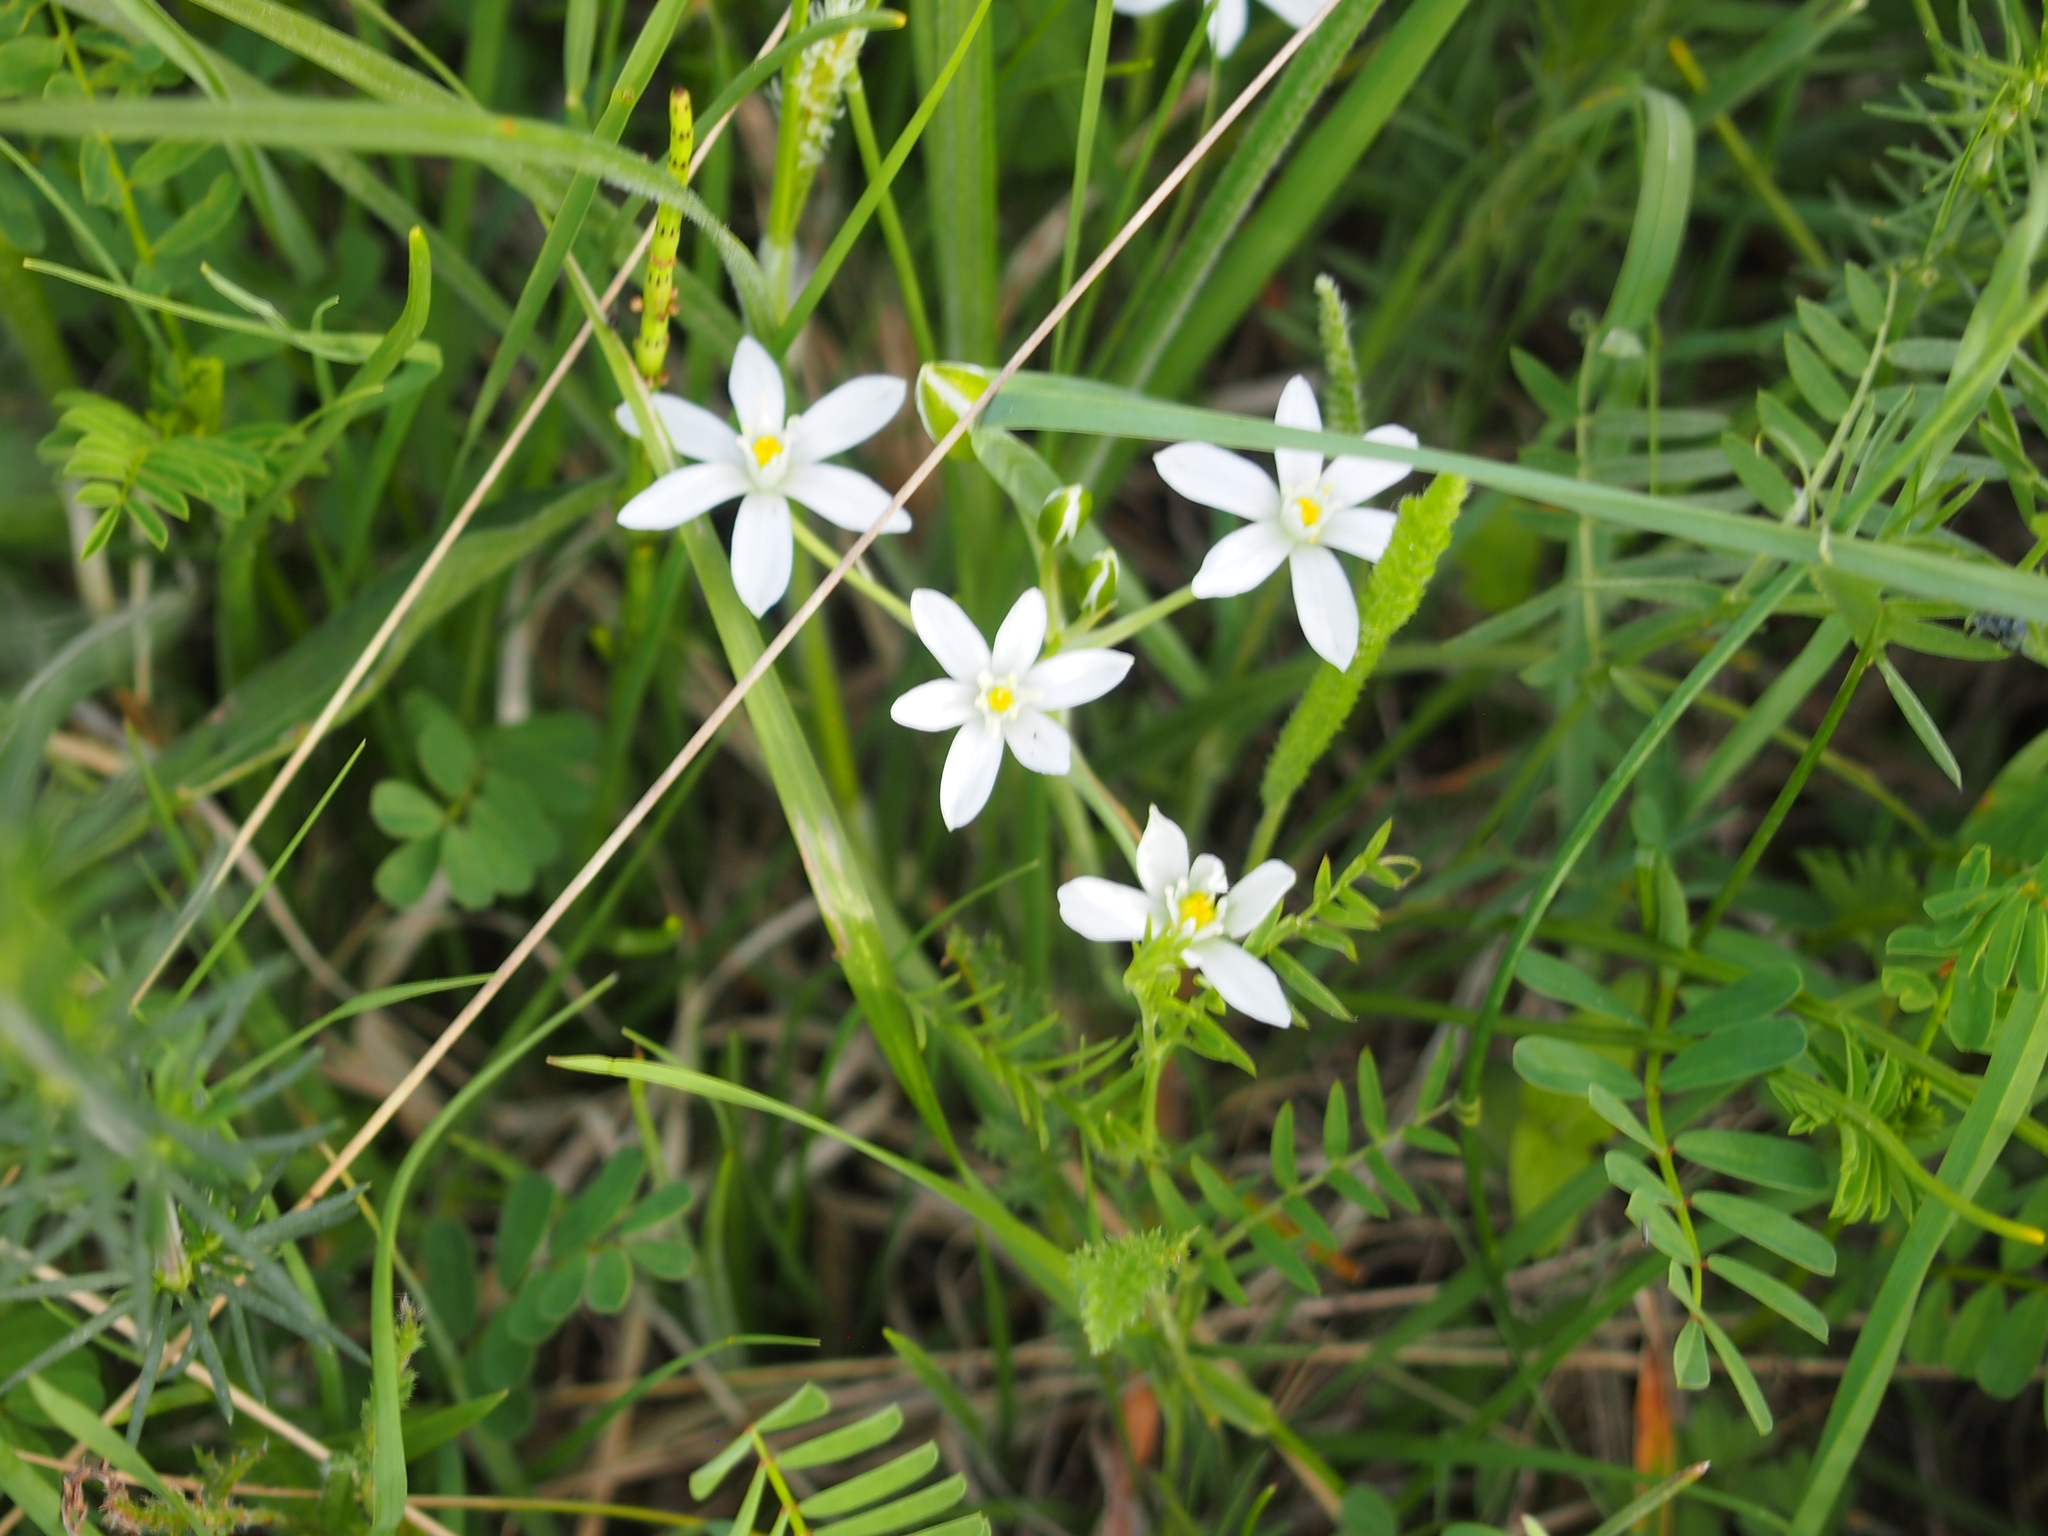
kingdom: Plantae
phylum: Tracheophyta
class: Liliopsida
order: Asparagales
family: Asparagaceae
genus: Ornithogalum
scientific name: Ornithogalum umbellatum
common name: Garden star-of-bethlehem
